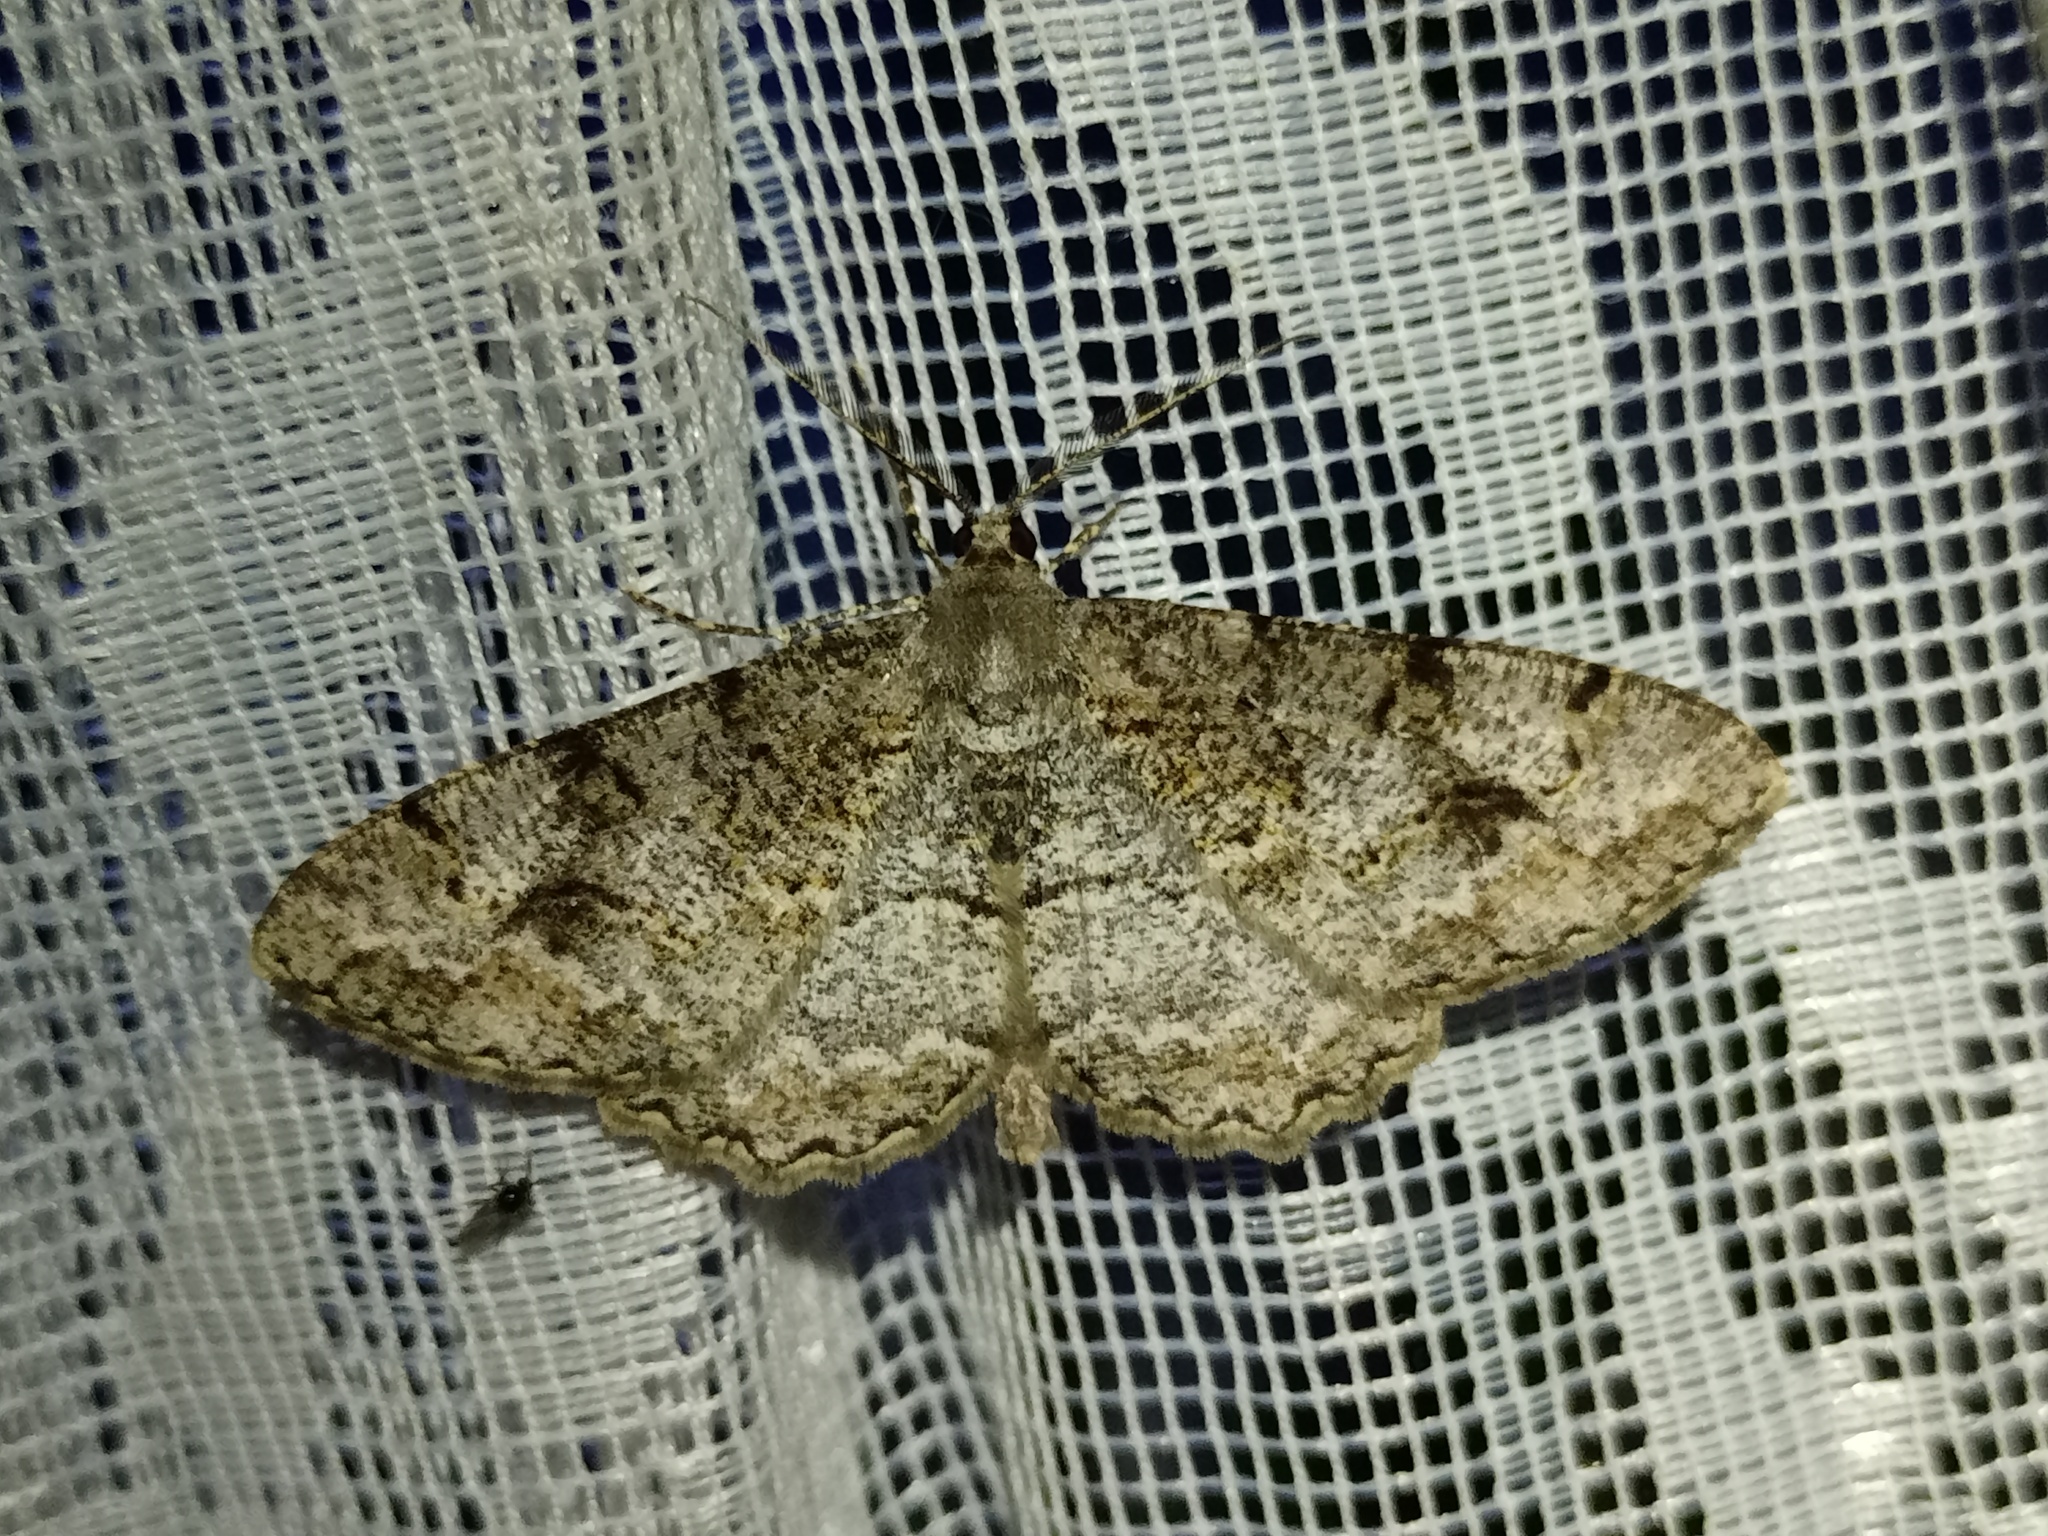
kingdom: Animalia
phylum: Arthropoda
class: Insecta
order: Lepidoptera
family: Geometridae
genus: Alcis
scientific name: Alcis repandata
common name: Mottled beauty
